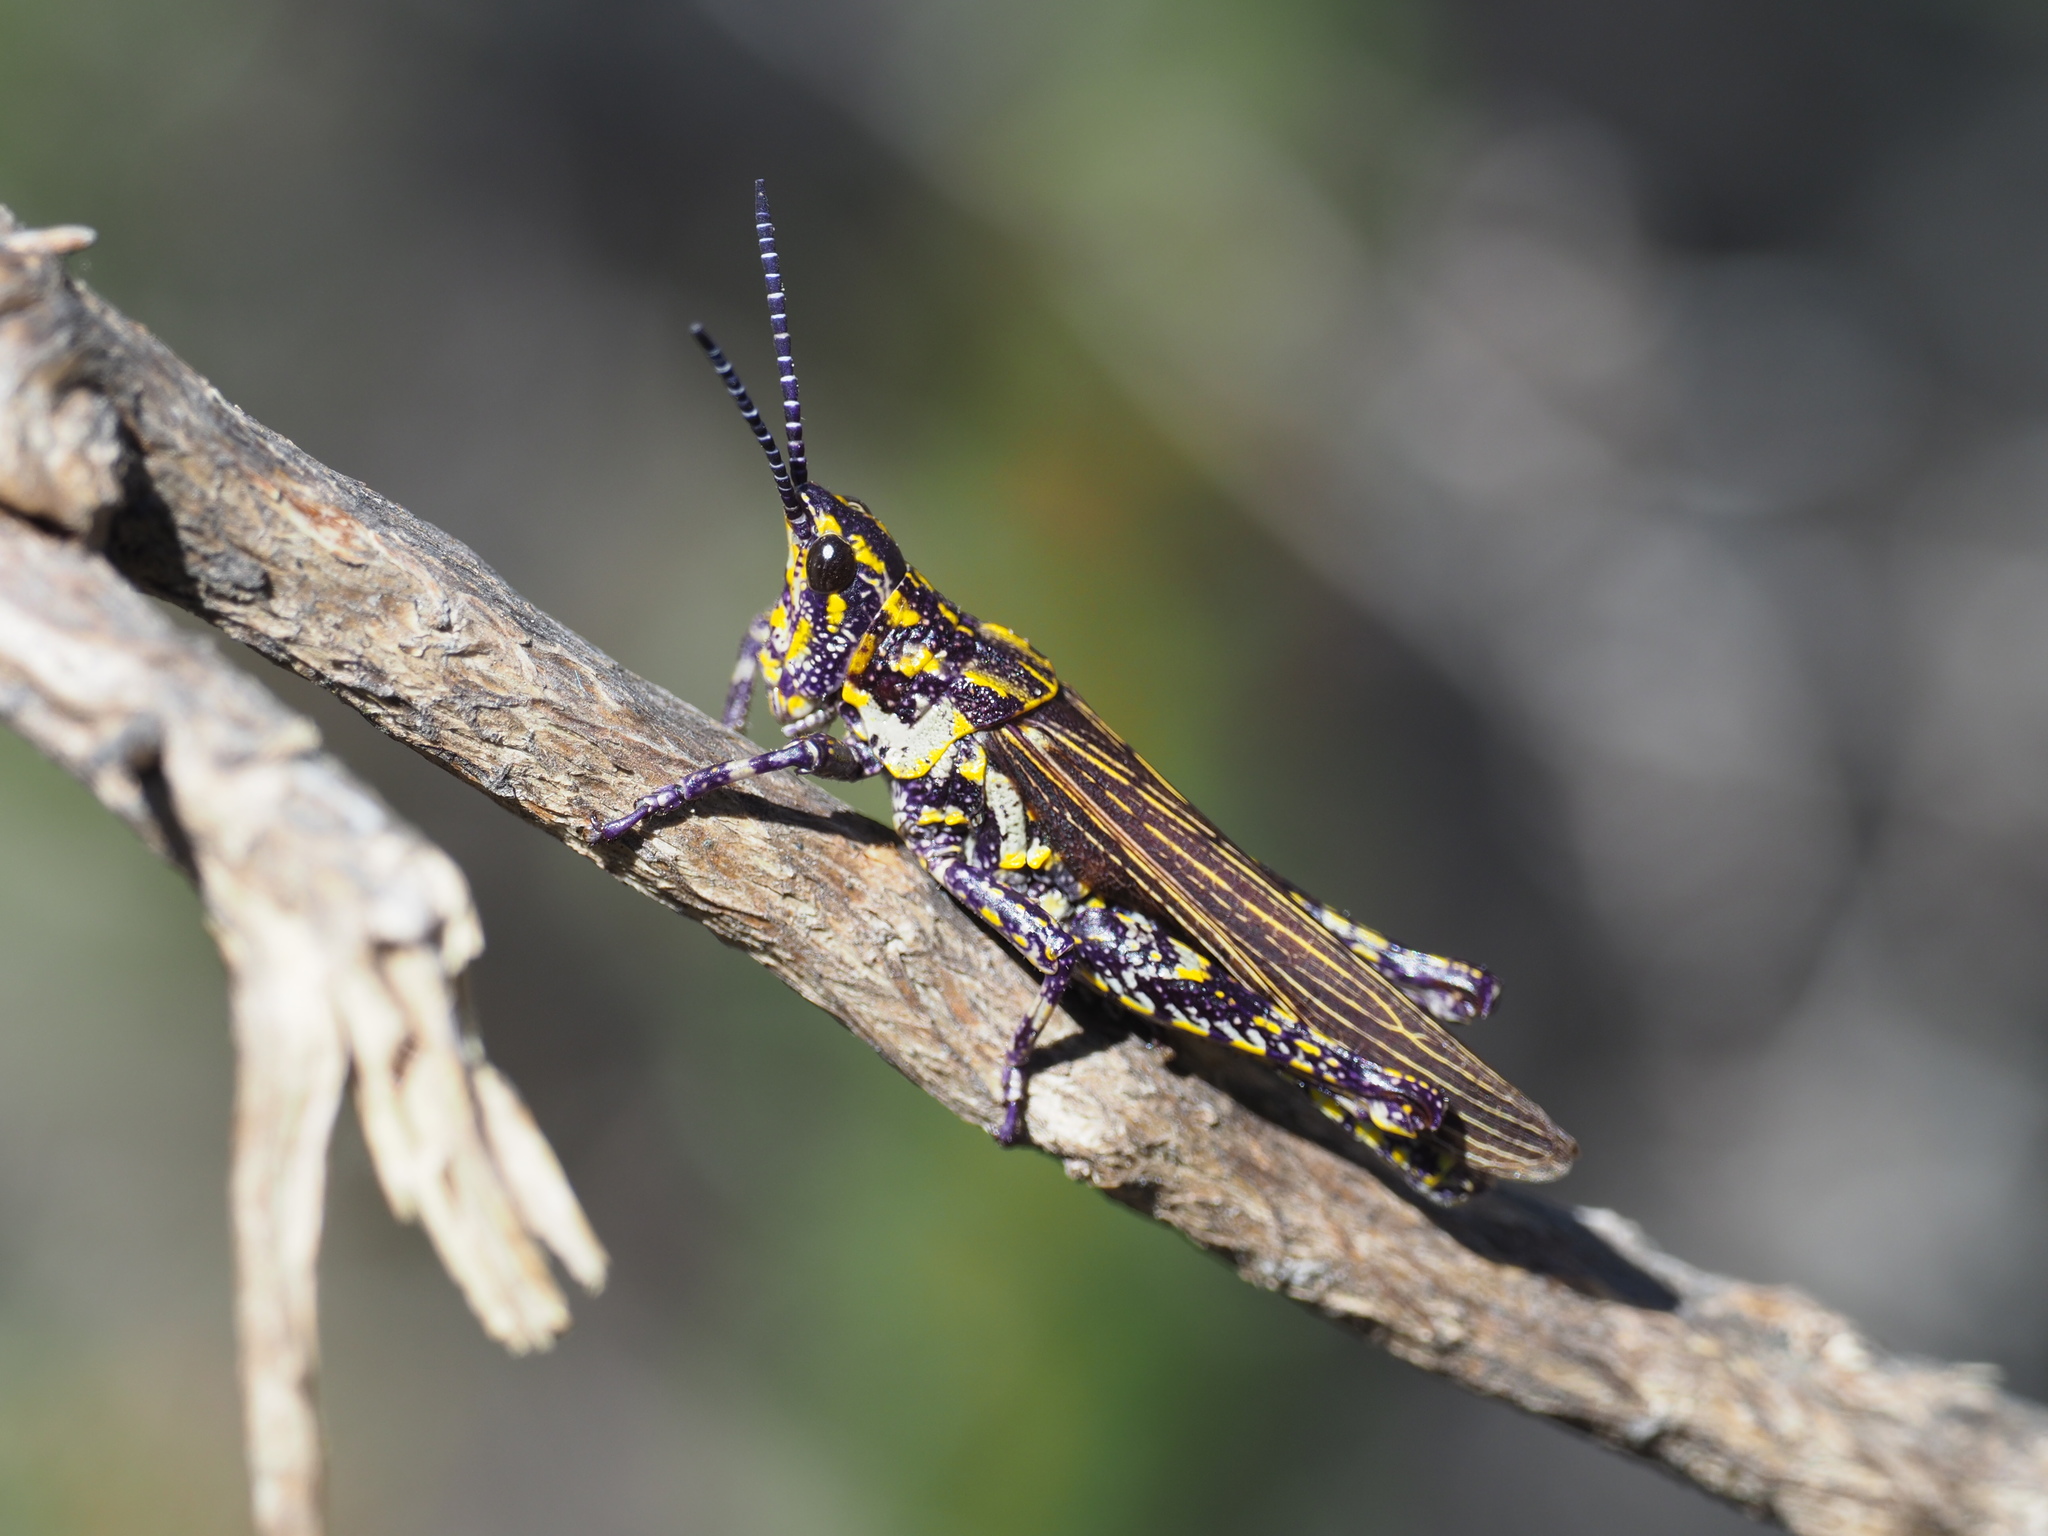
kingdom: Animalia
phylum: Arthropoda
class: Insecta
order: Orthoptera
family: Pyrgomorphidae
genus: Ochrophlebia
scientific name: Ochrophlebia cafra
